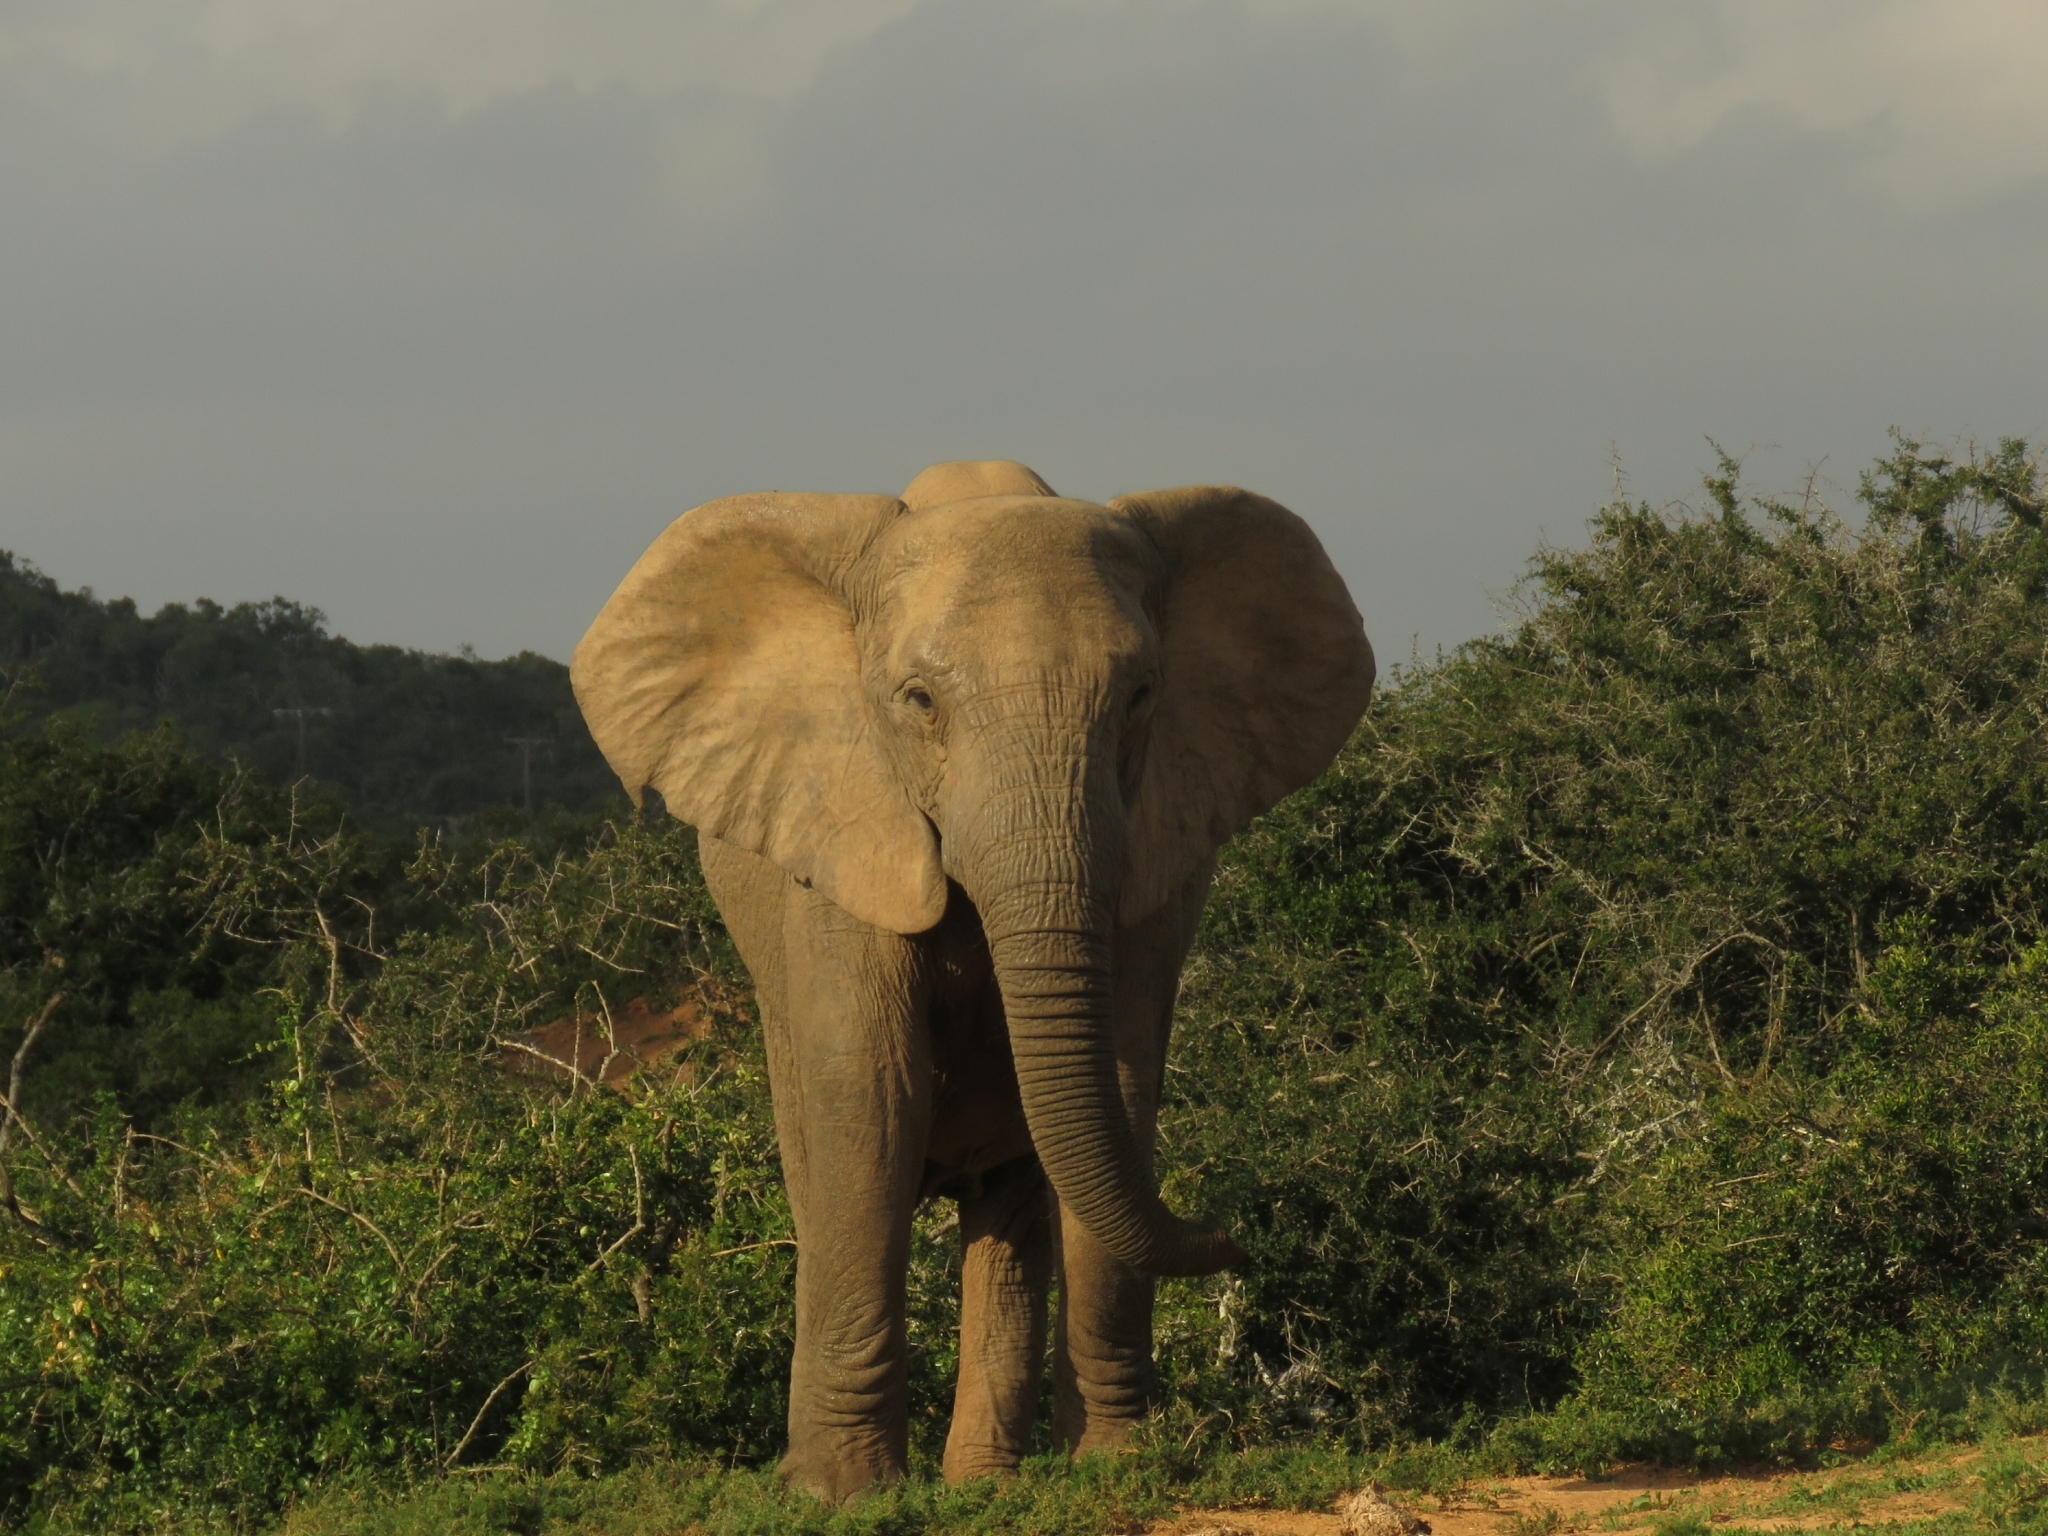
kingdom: Animalia
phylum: Chordata
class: Mammalia
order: Proboscidea
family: Elephantidae
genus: Loxodonta
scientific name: Loxodonta africana
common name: African elephant
